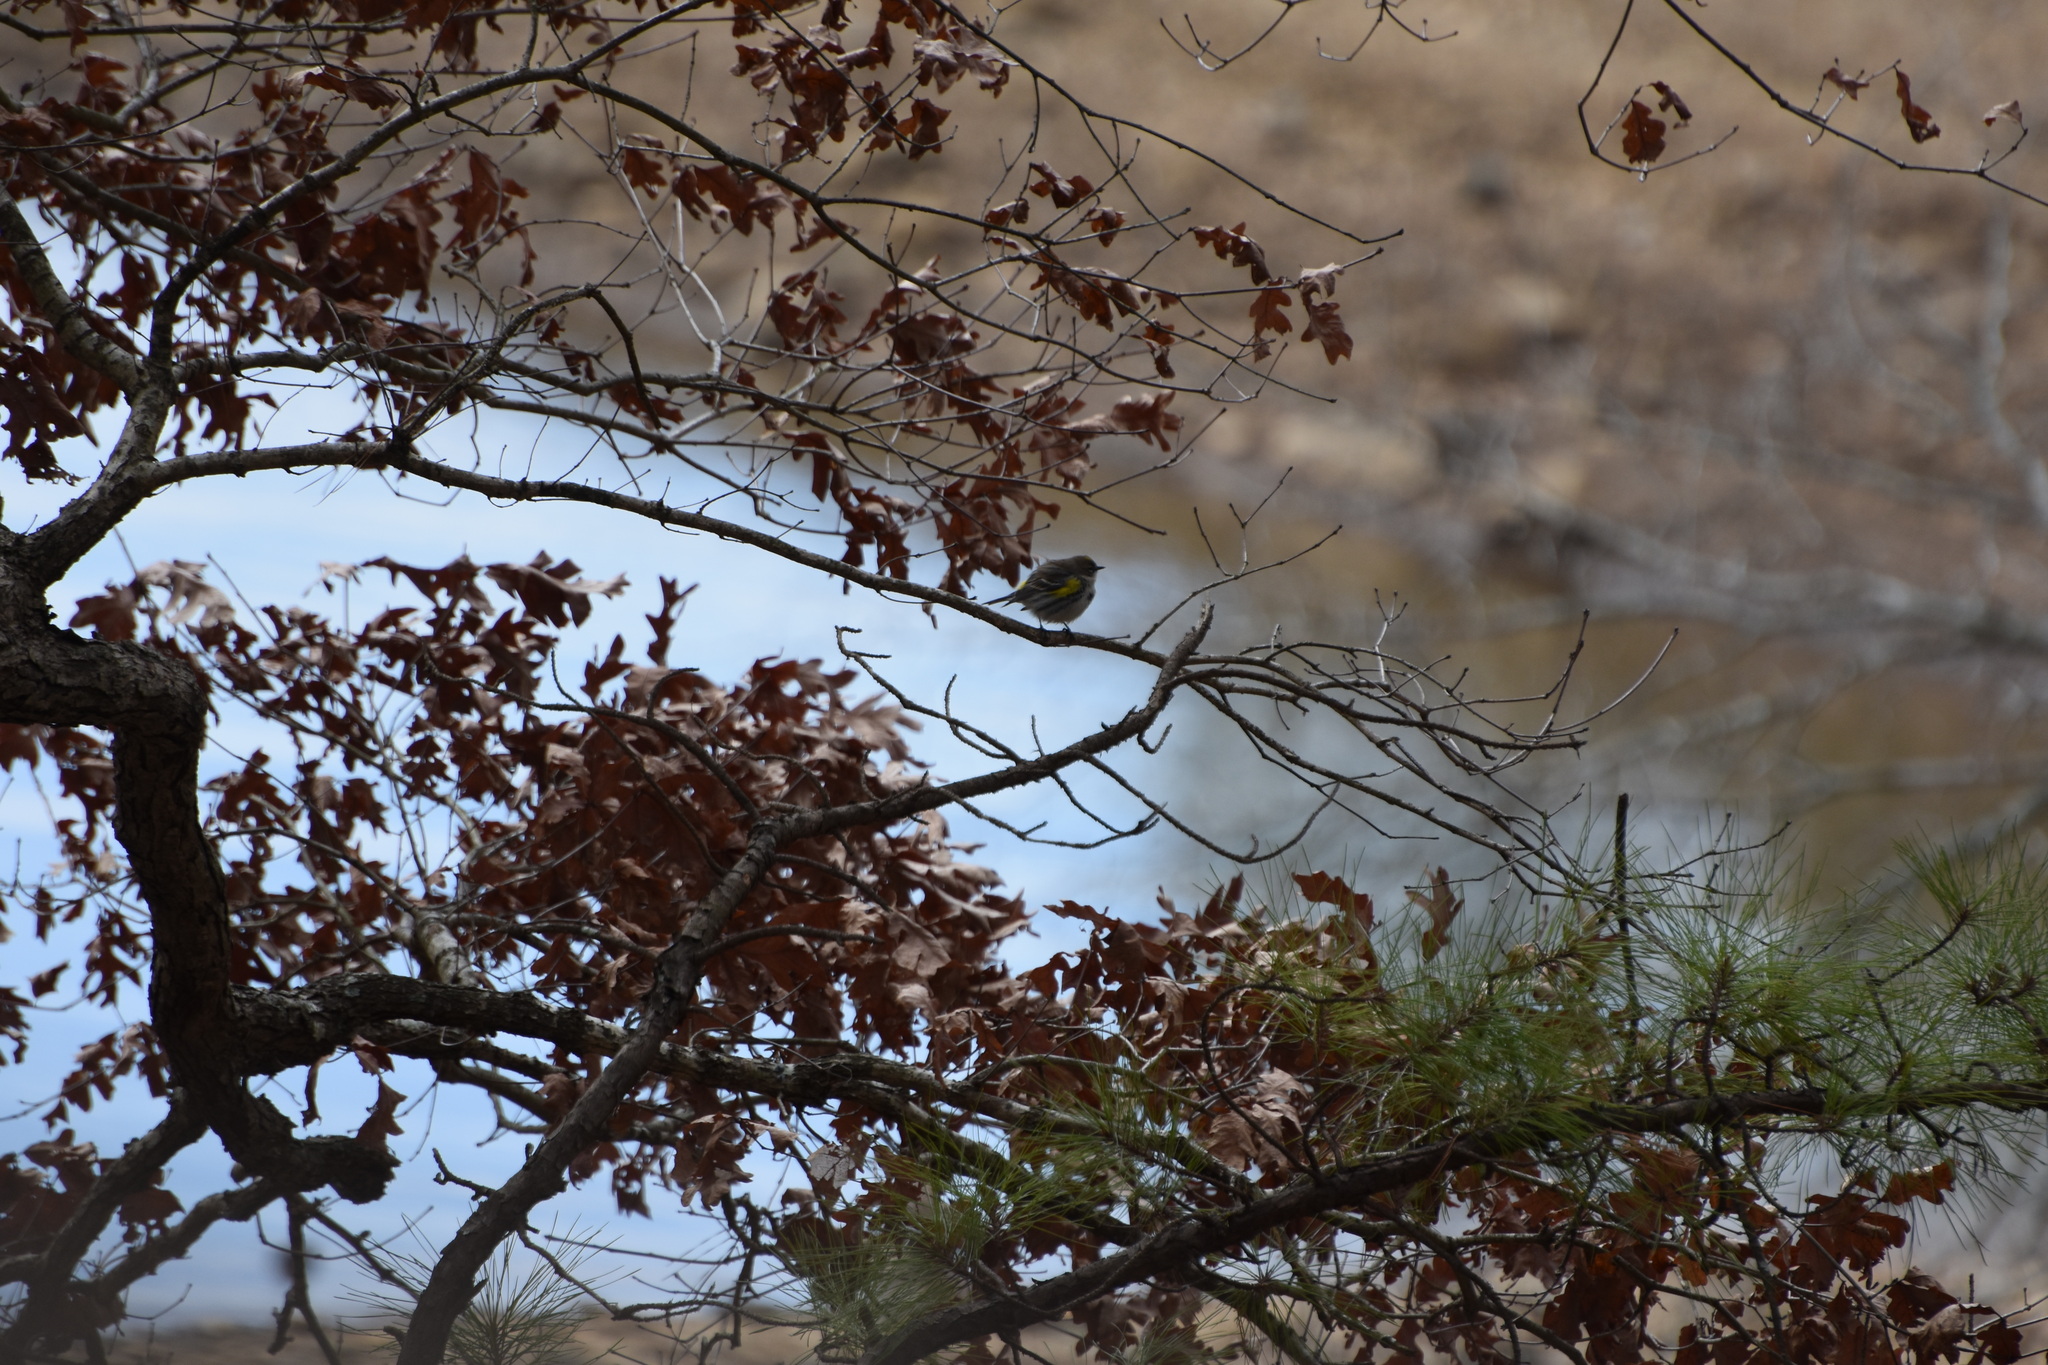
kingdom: Animalia
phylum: Chordata
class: Aves
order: Passeriformes
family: Parulidae
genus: Setophaga
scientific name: Setophaga coronata
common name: Myrtle warbler
